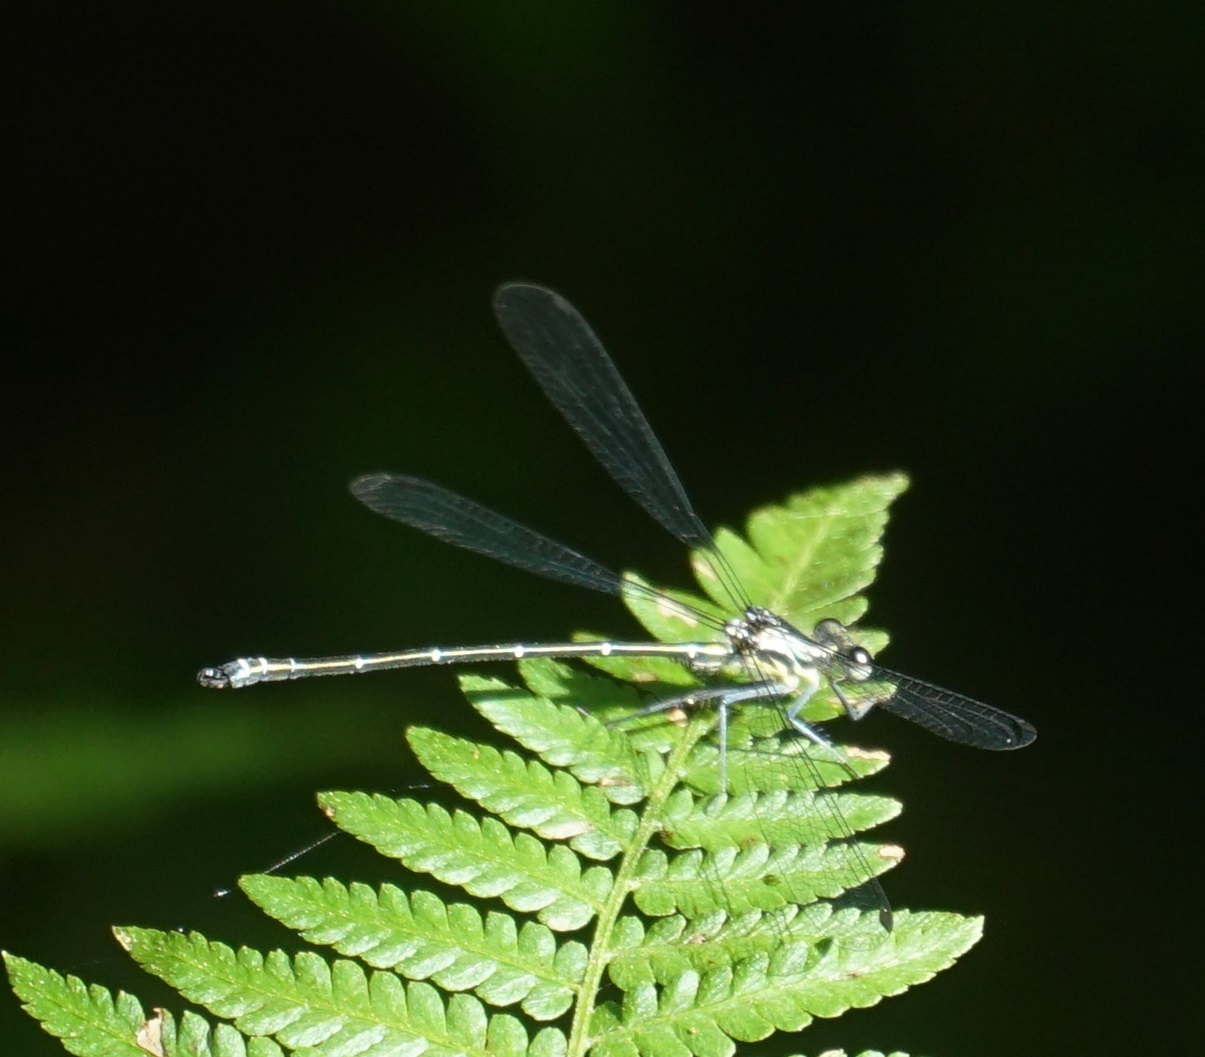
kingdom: Animalia
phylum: Arthropoda
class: Insecta
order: Odonata
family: Argiolestidae
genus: Austroargiolestes
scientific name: Austroargiolestes icteromelas
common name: Common flatwing
